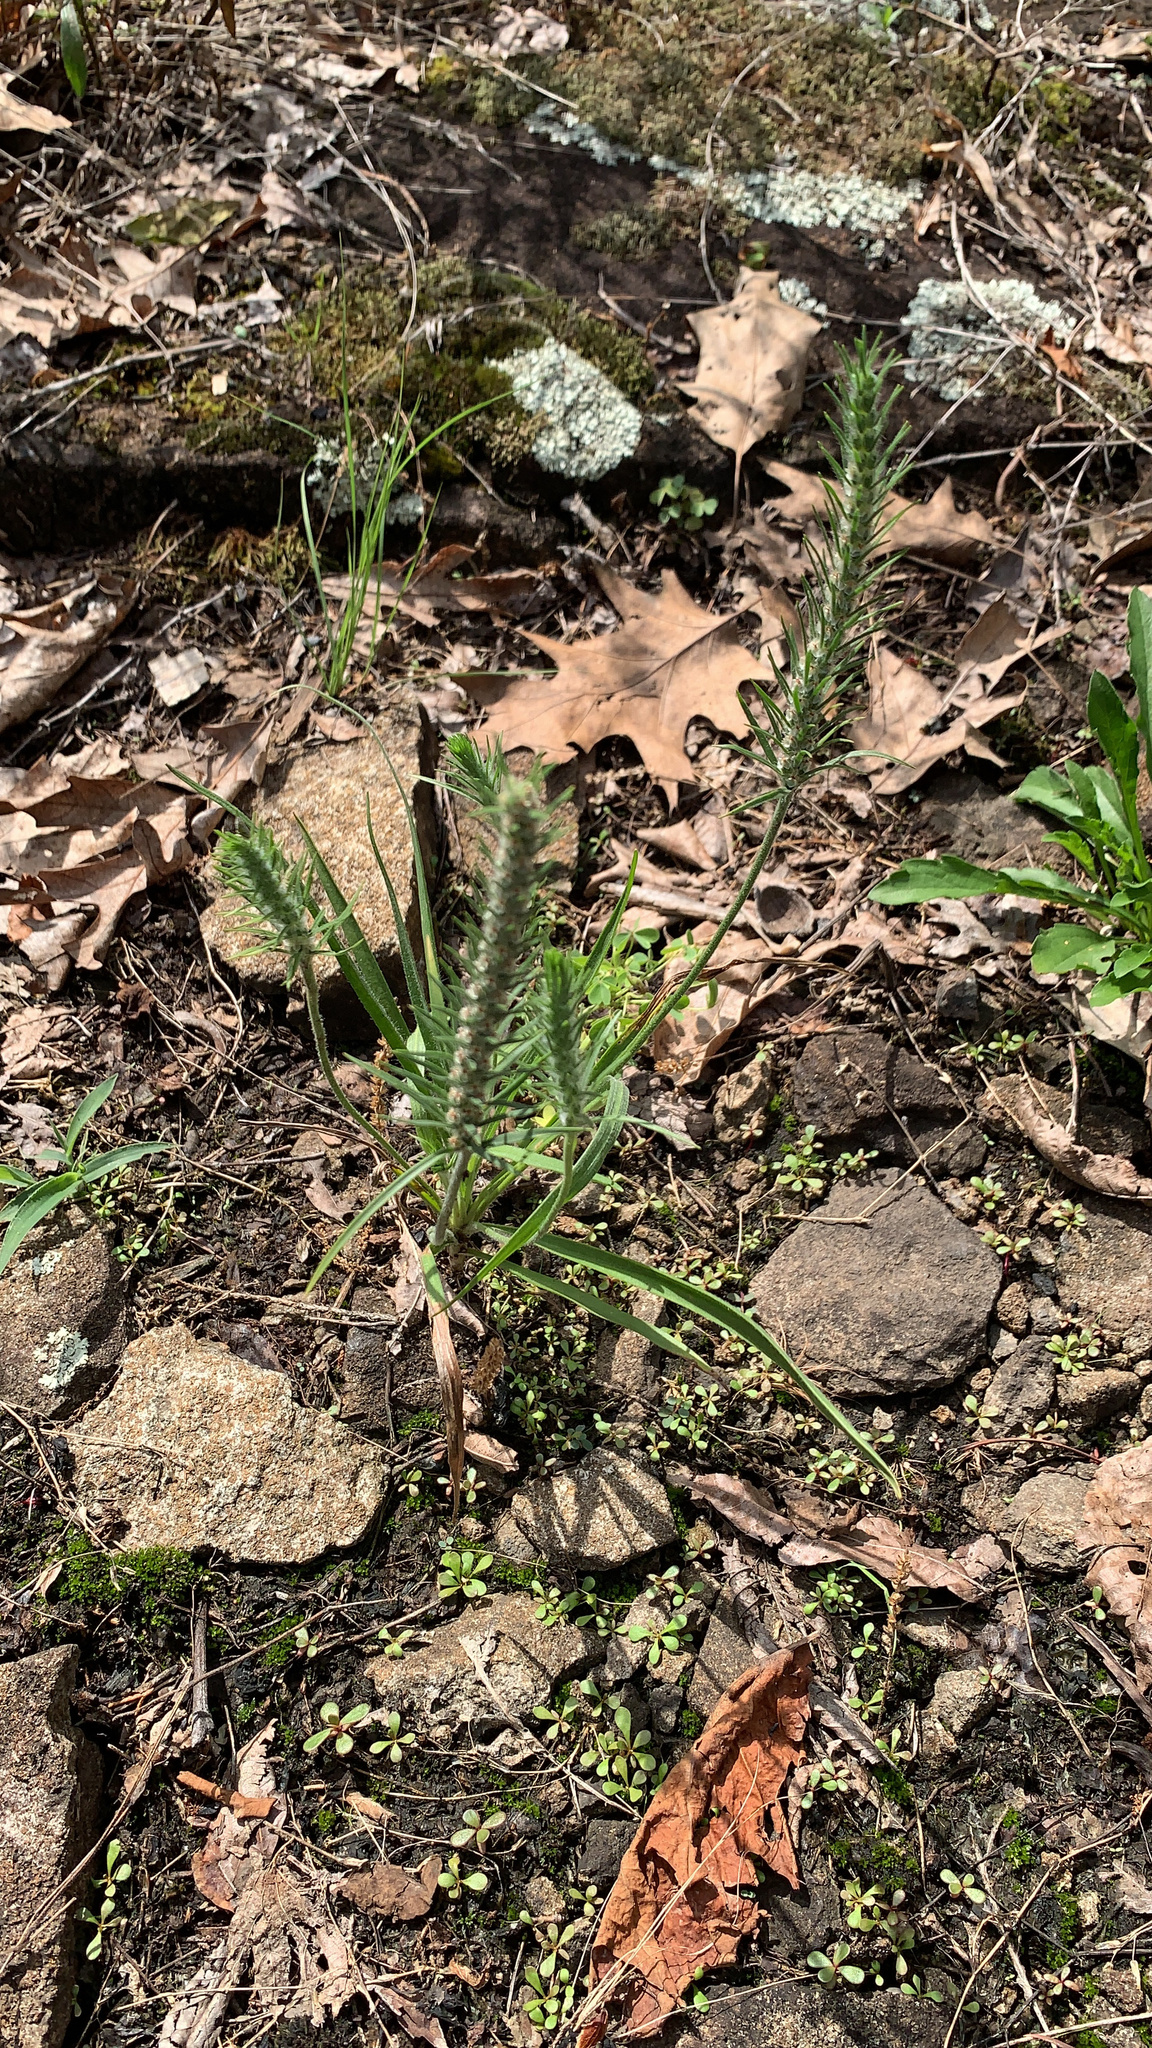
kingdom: Plantae
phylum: Tracheophyta
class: Magnoliopsida
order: Lamiales
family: Plantaginaceae
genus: Plantago
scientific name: Plantago aristata
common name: Bracted plantain
